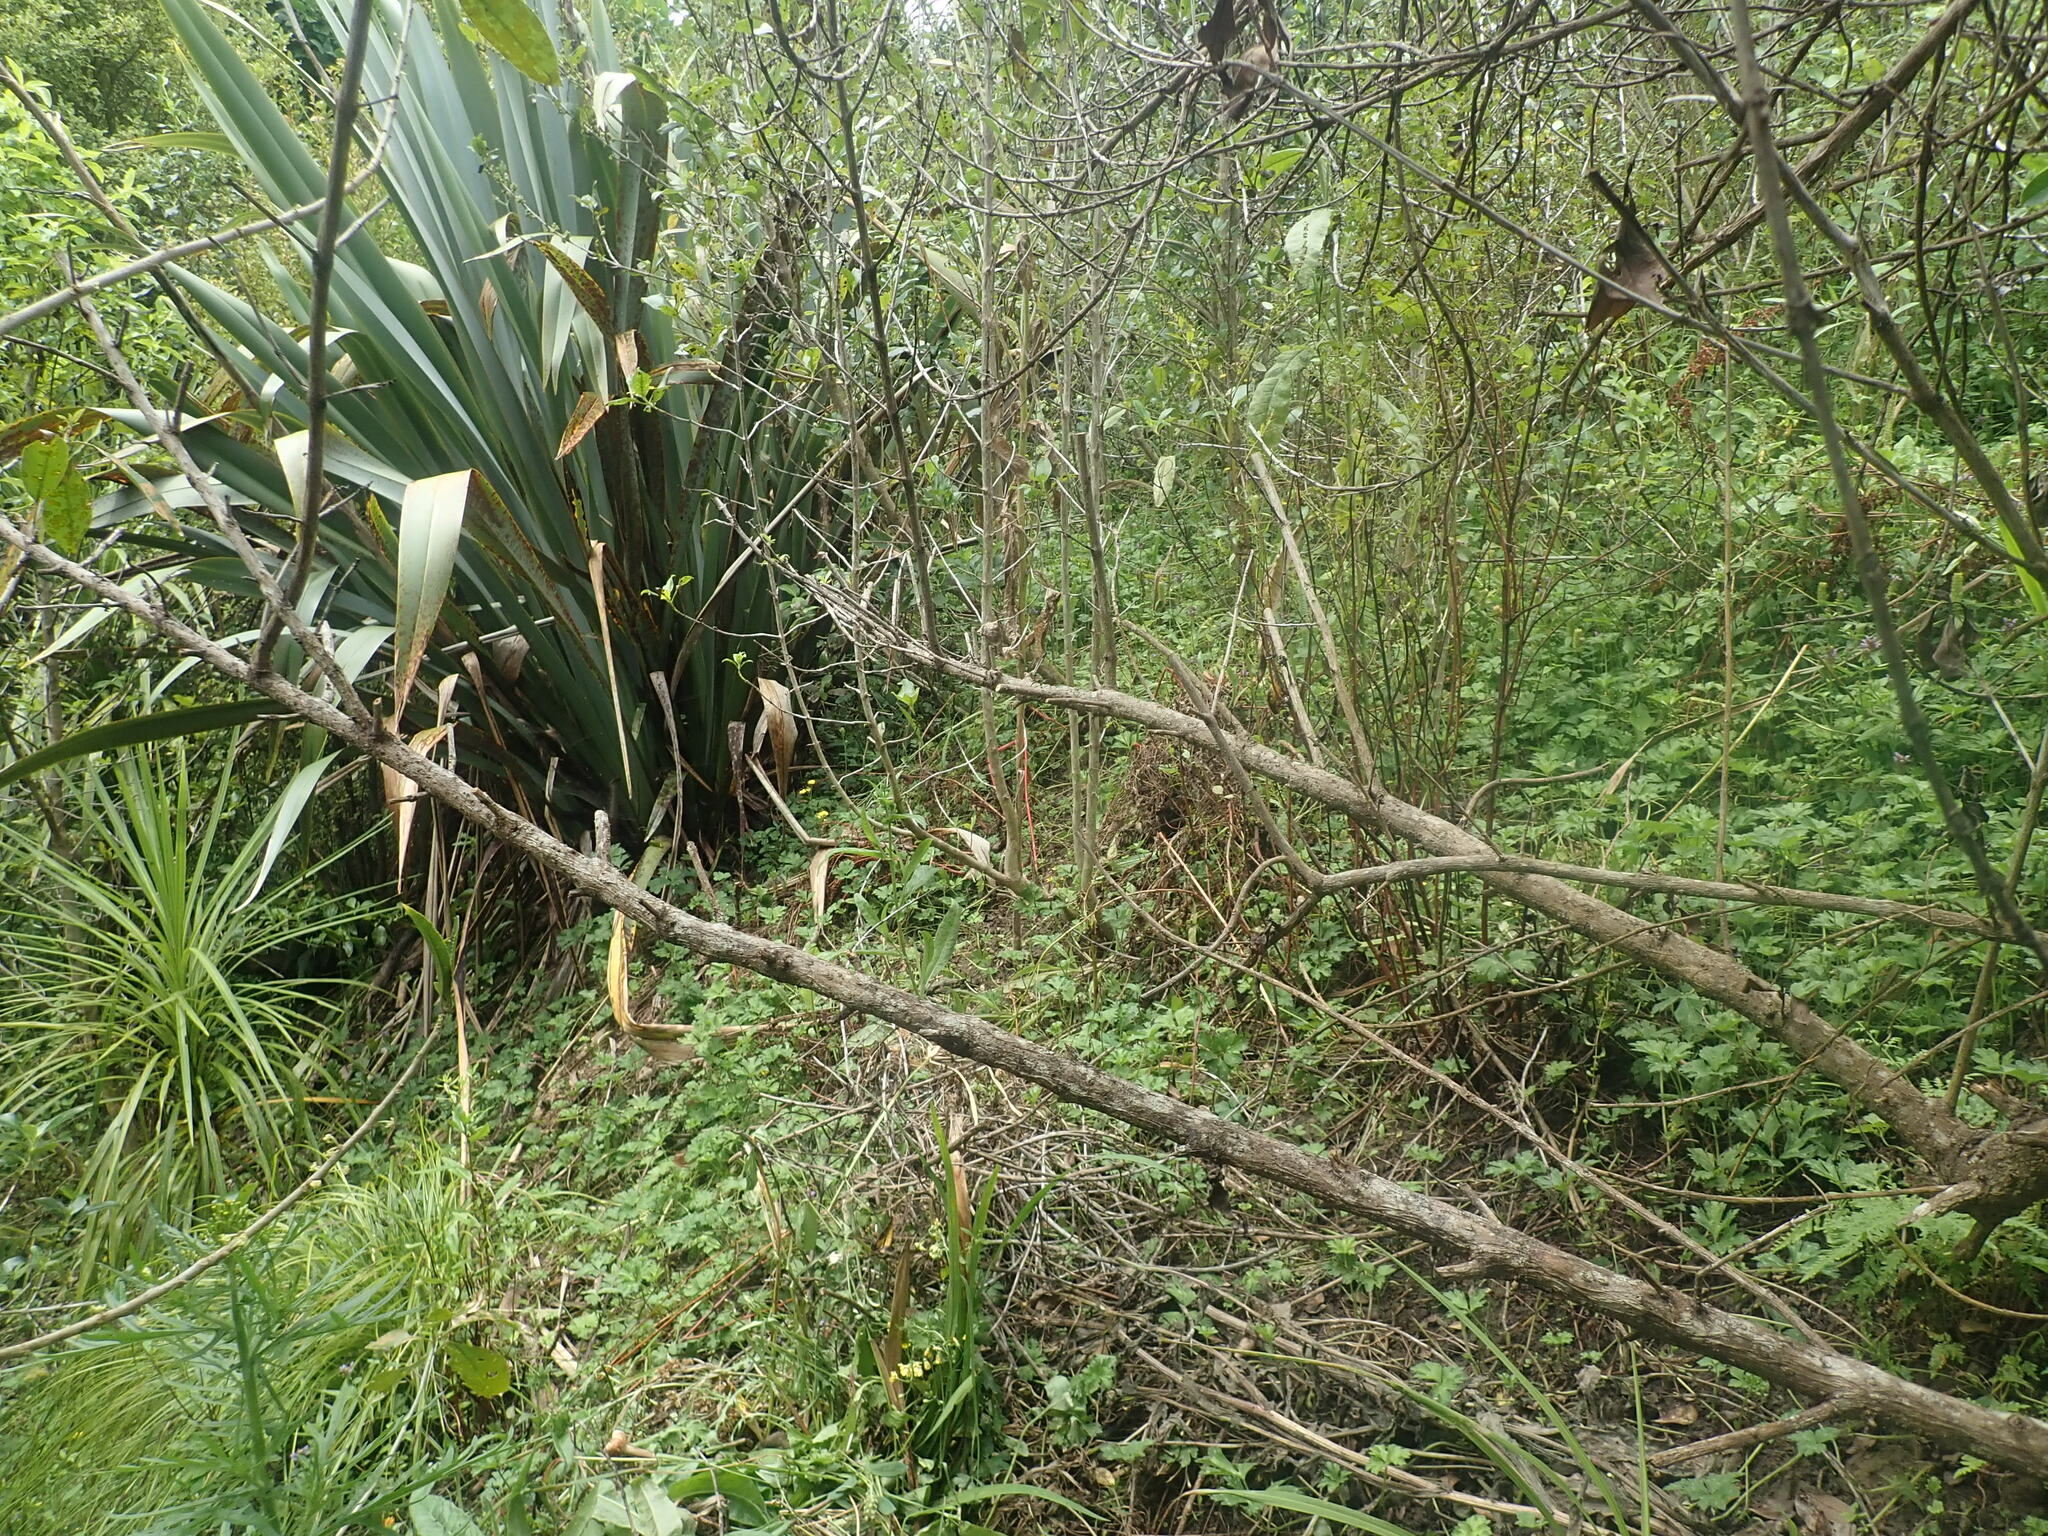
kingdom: Plantae
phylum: Tracheophyta
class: Magnoliopsida
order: Gentianales
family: Rubiaceae
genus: Coprosma
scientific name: Coprosma robusta
